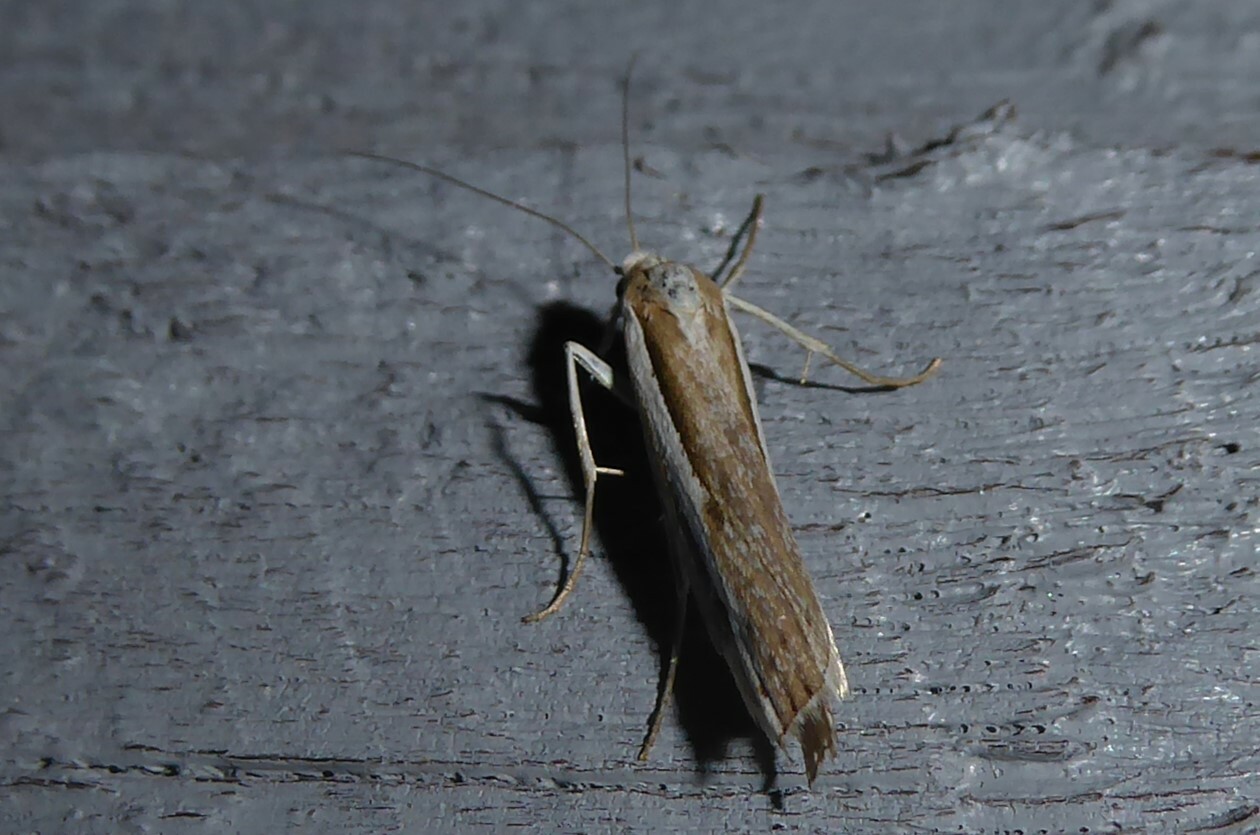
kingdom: Animalia
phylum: Arthropoda
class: Insecta
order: Lepidoptera
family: Crambidae
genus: Orocrambus
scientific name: Orocrambus vittellus
